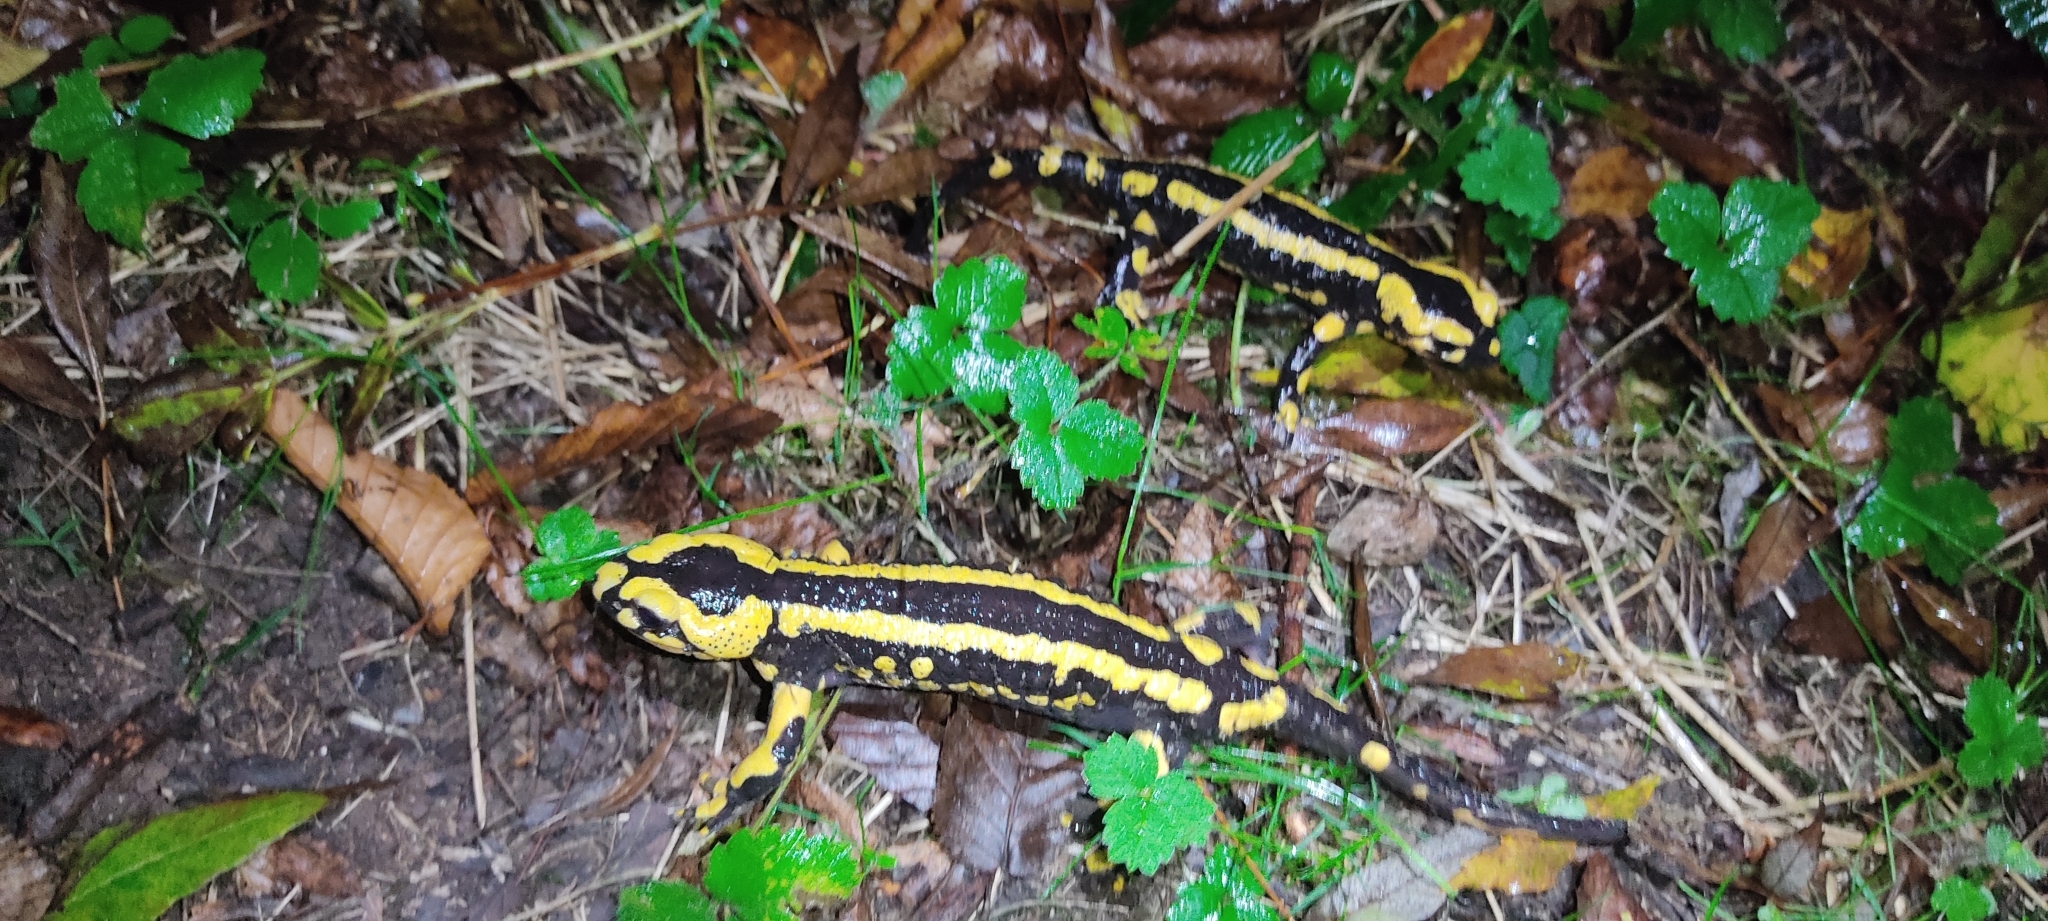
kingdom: Animalia
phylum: Chordata
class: Amphibia
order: Caudata
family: Salamandridae
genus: Salamandra
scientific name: Salamandra salamandra
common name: Fire salamander
